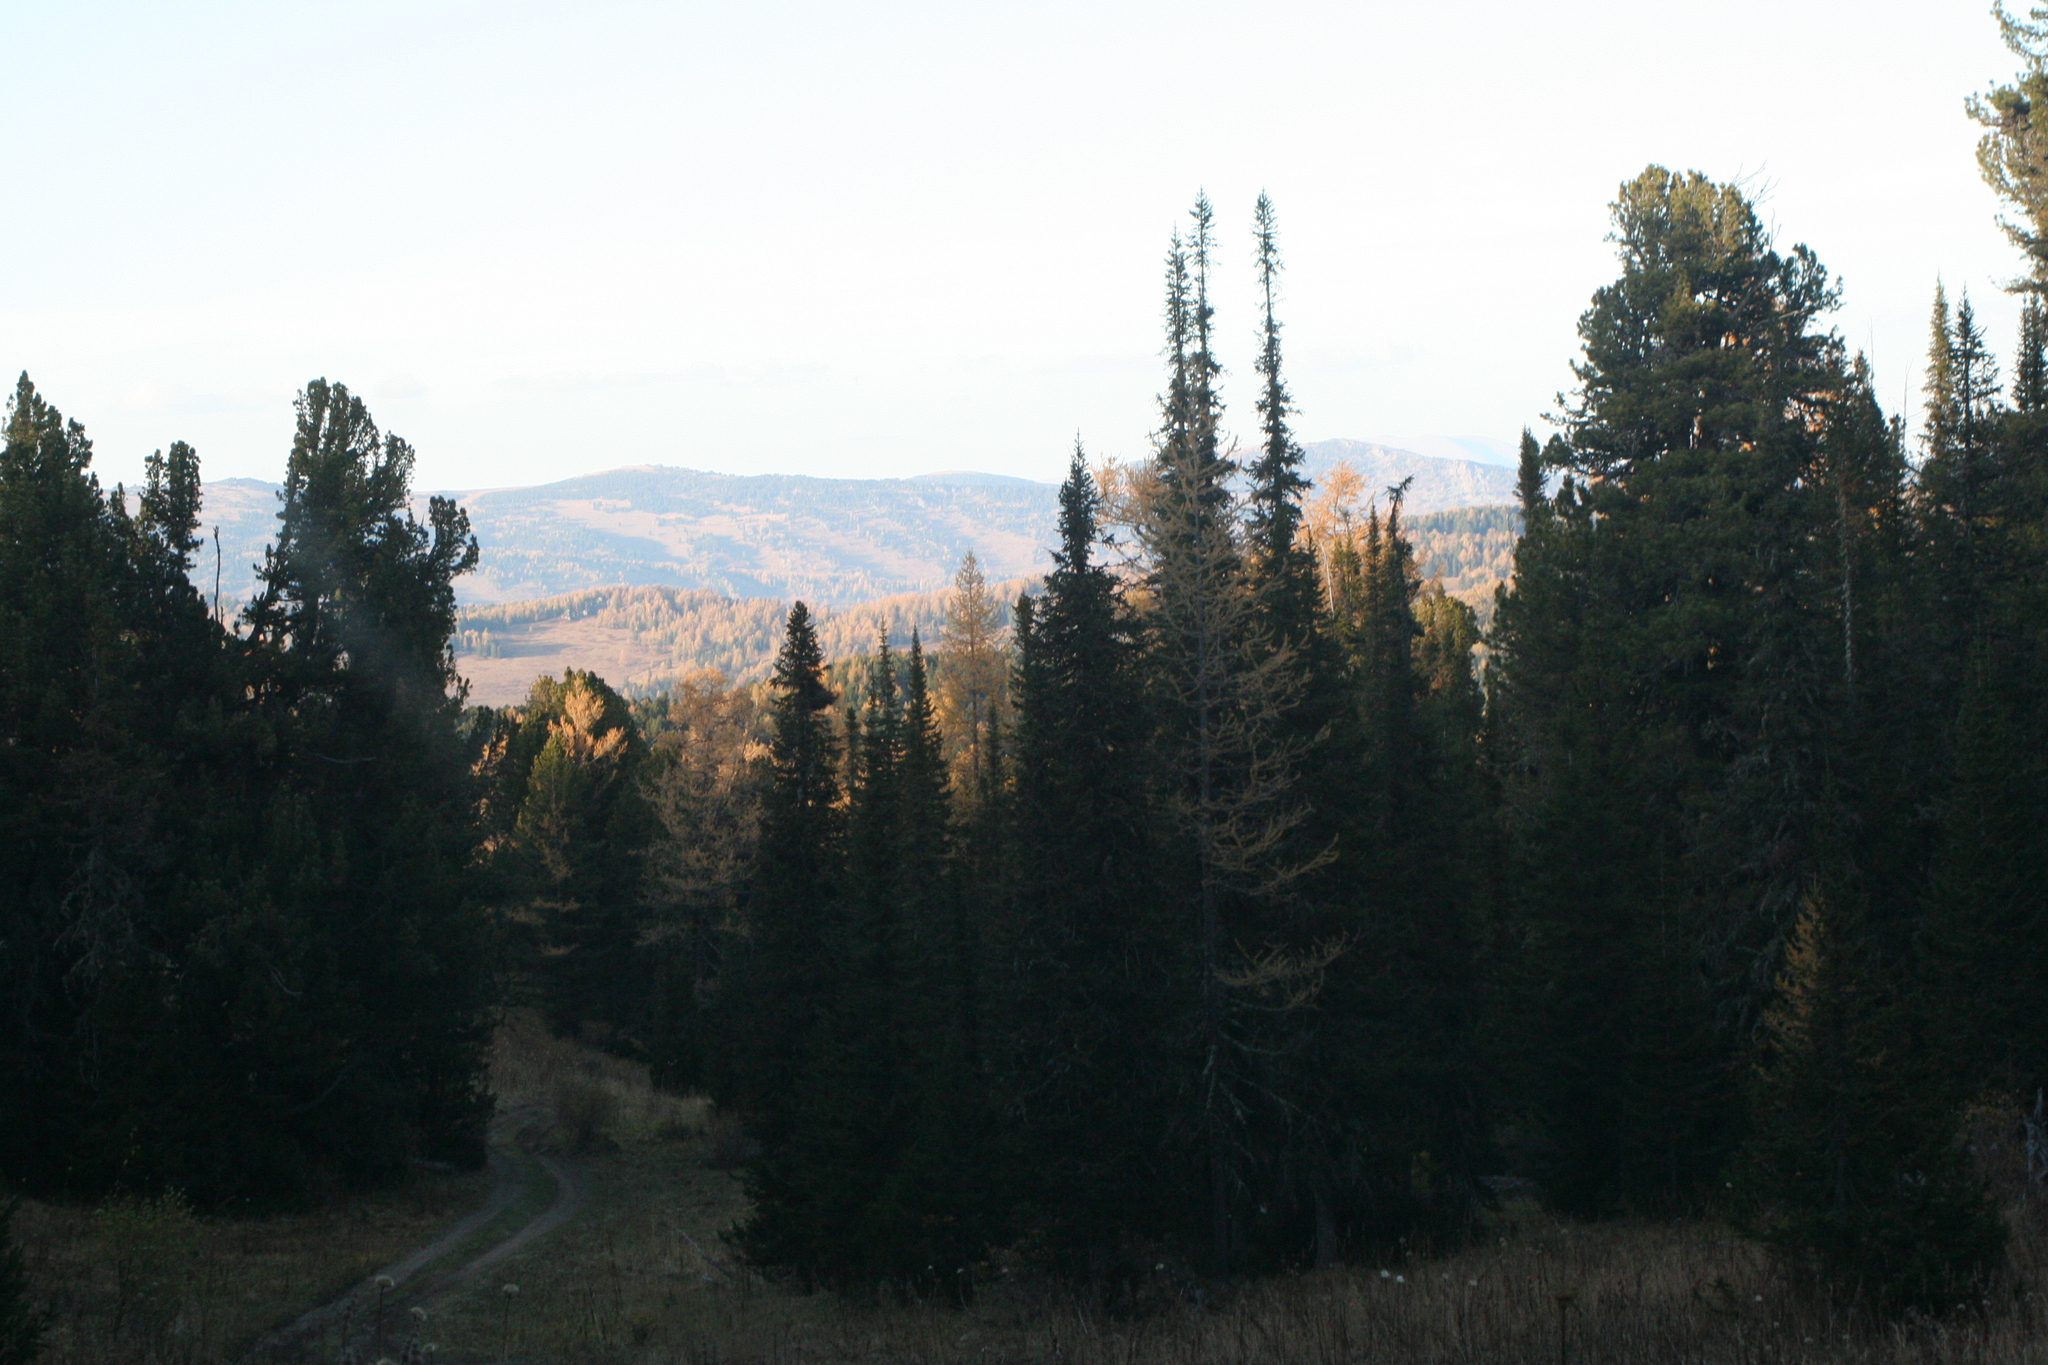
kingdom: Plantae
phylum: Tracheophyta
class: Pinopsida
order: Pinales
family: Pinaceae
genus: Abies
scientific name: Abies sibirica
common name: Siberian fir
